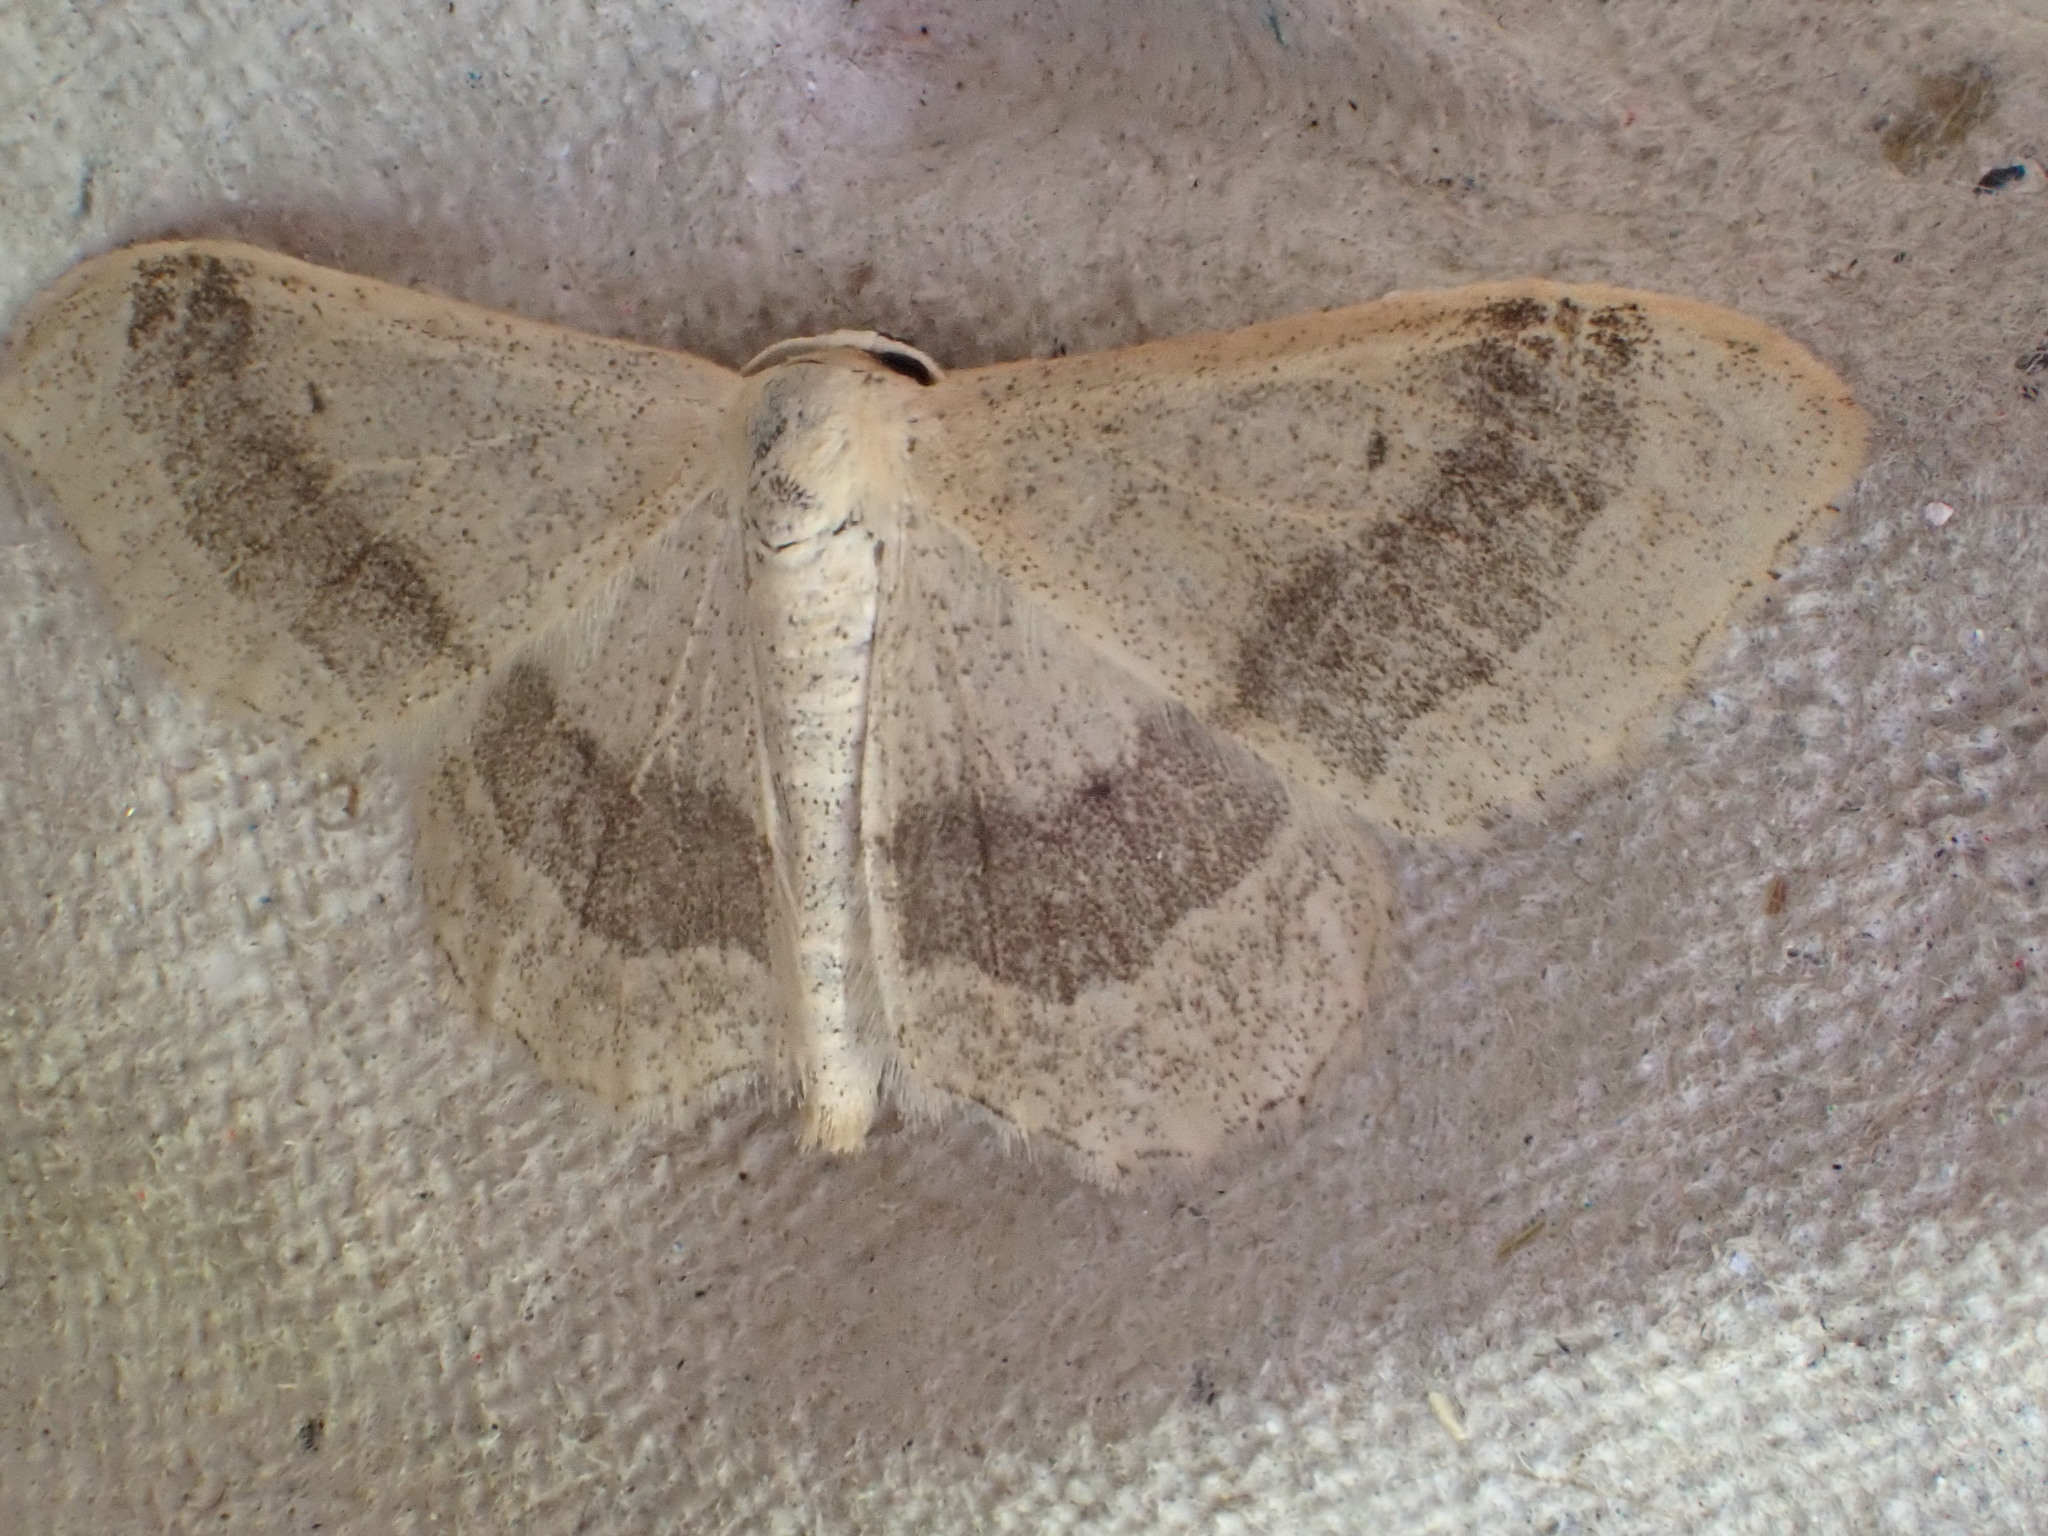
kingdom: Animalia
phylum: Arthropoda
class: Insecta
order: Lepidoptera
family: Geometridae
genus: Idaea
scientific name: Idaea aversata
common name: Riband wave
